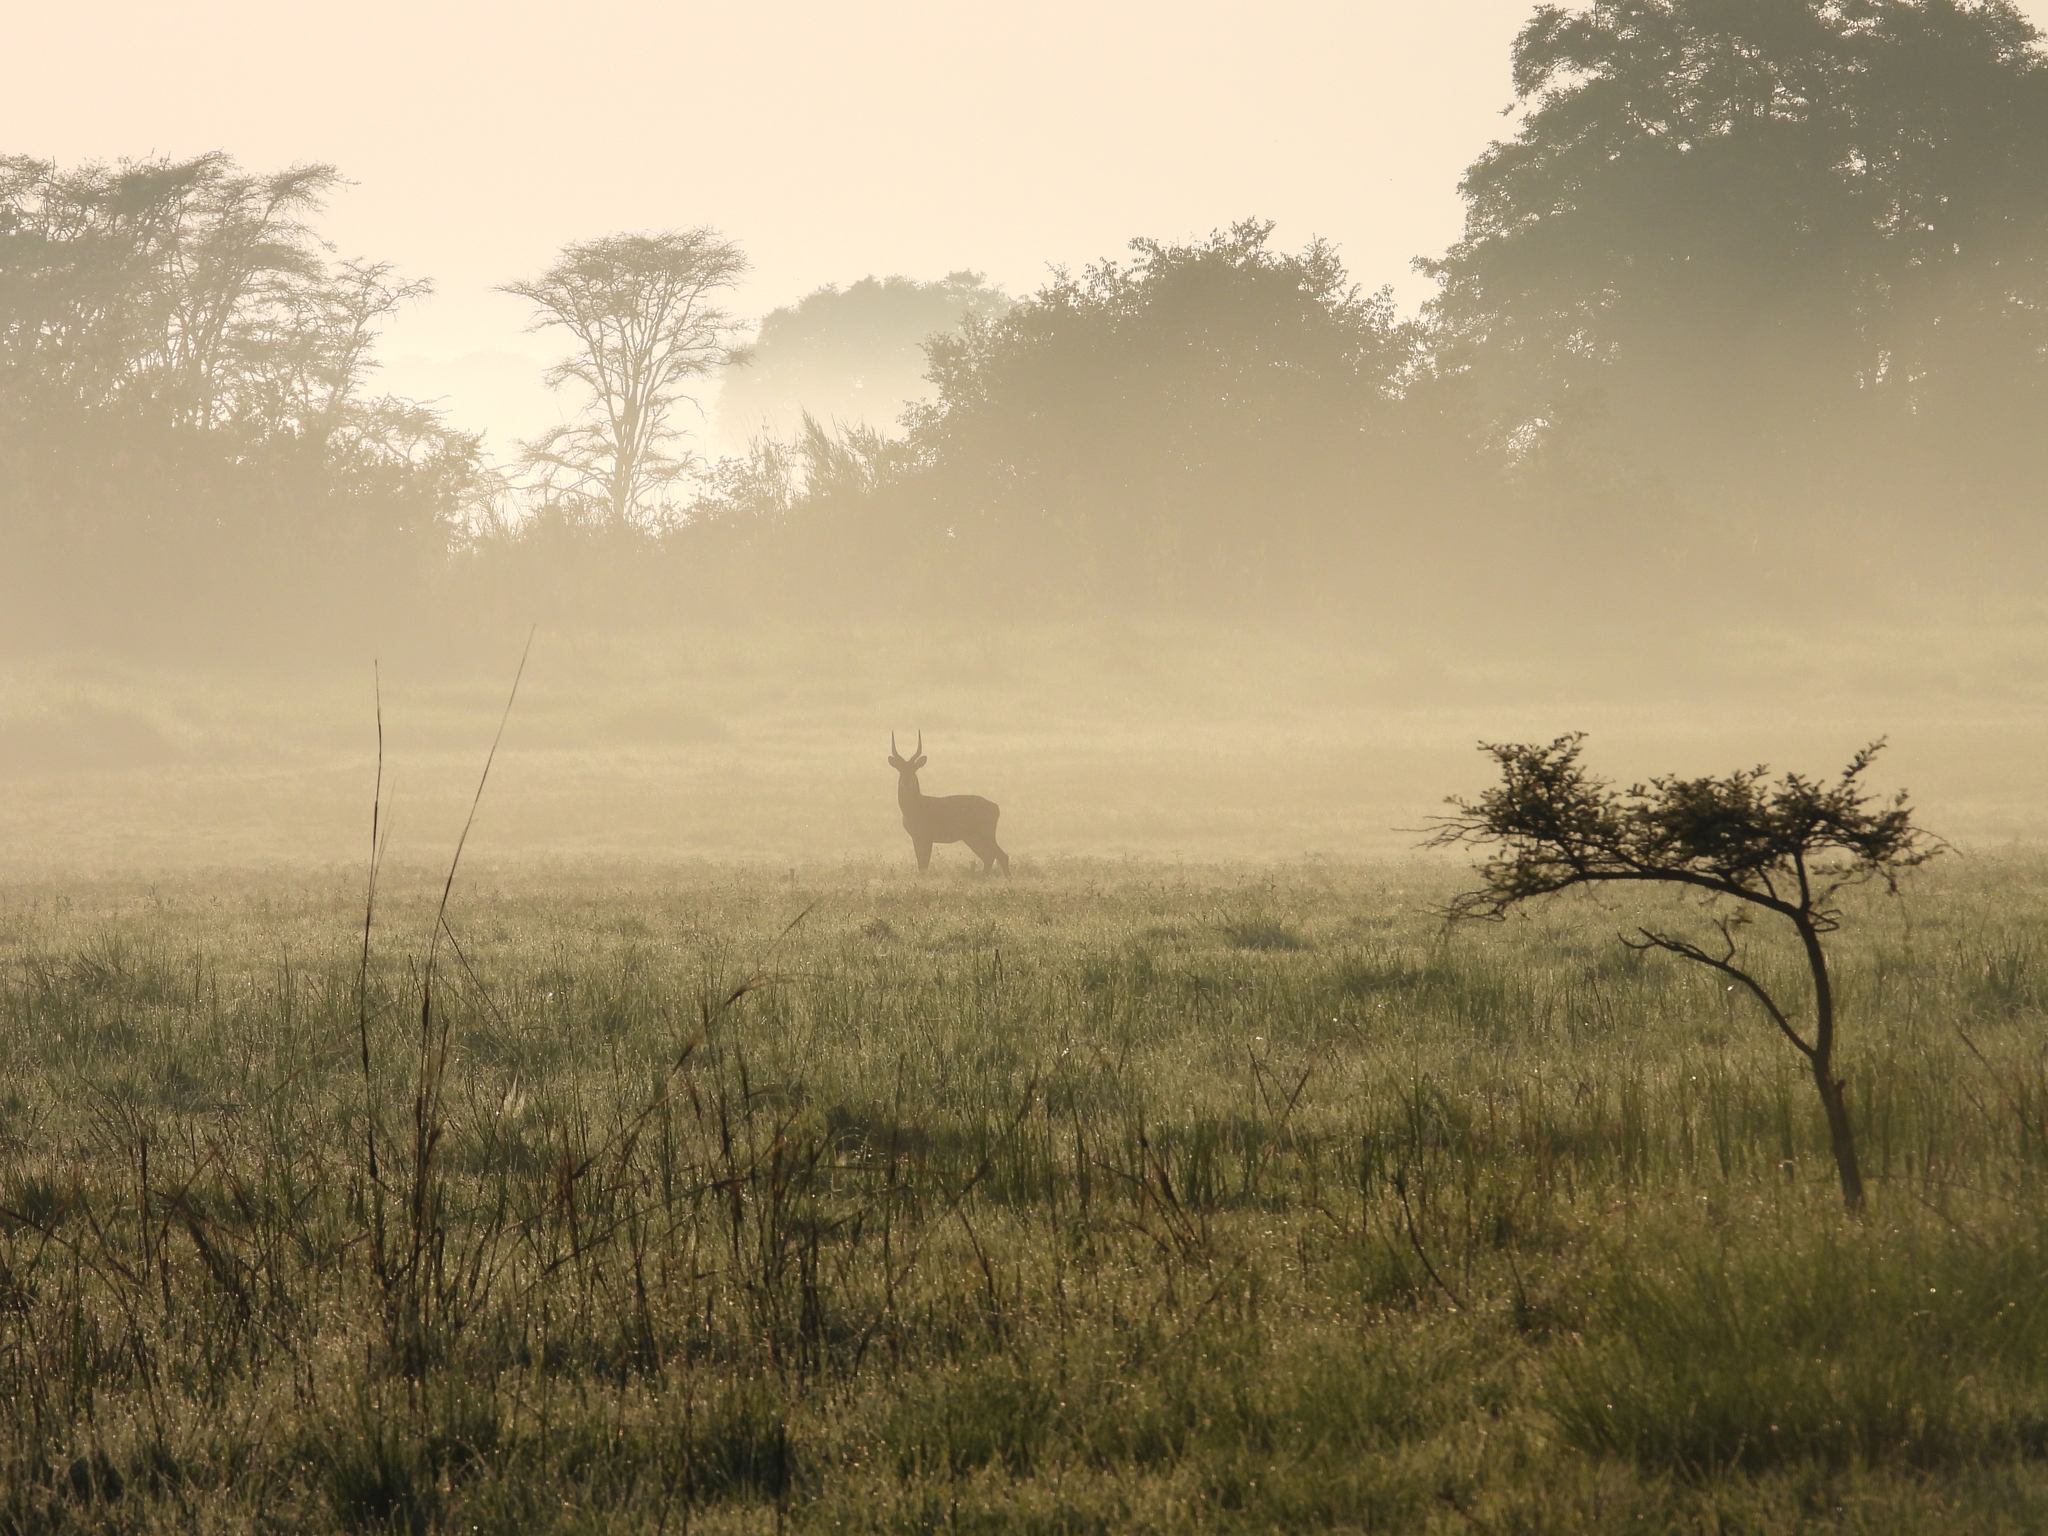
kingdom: Animalia
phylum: Chordata
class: Mammalia
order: Artiodactyla
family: Bovidae
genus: Kobus
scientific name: Kobus vardonii
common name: Puku
